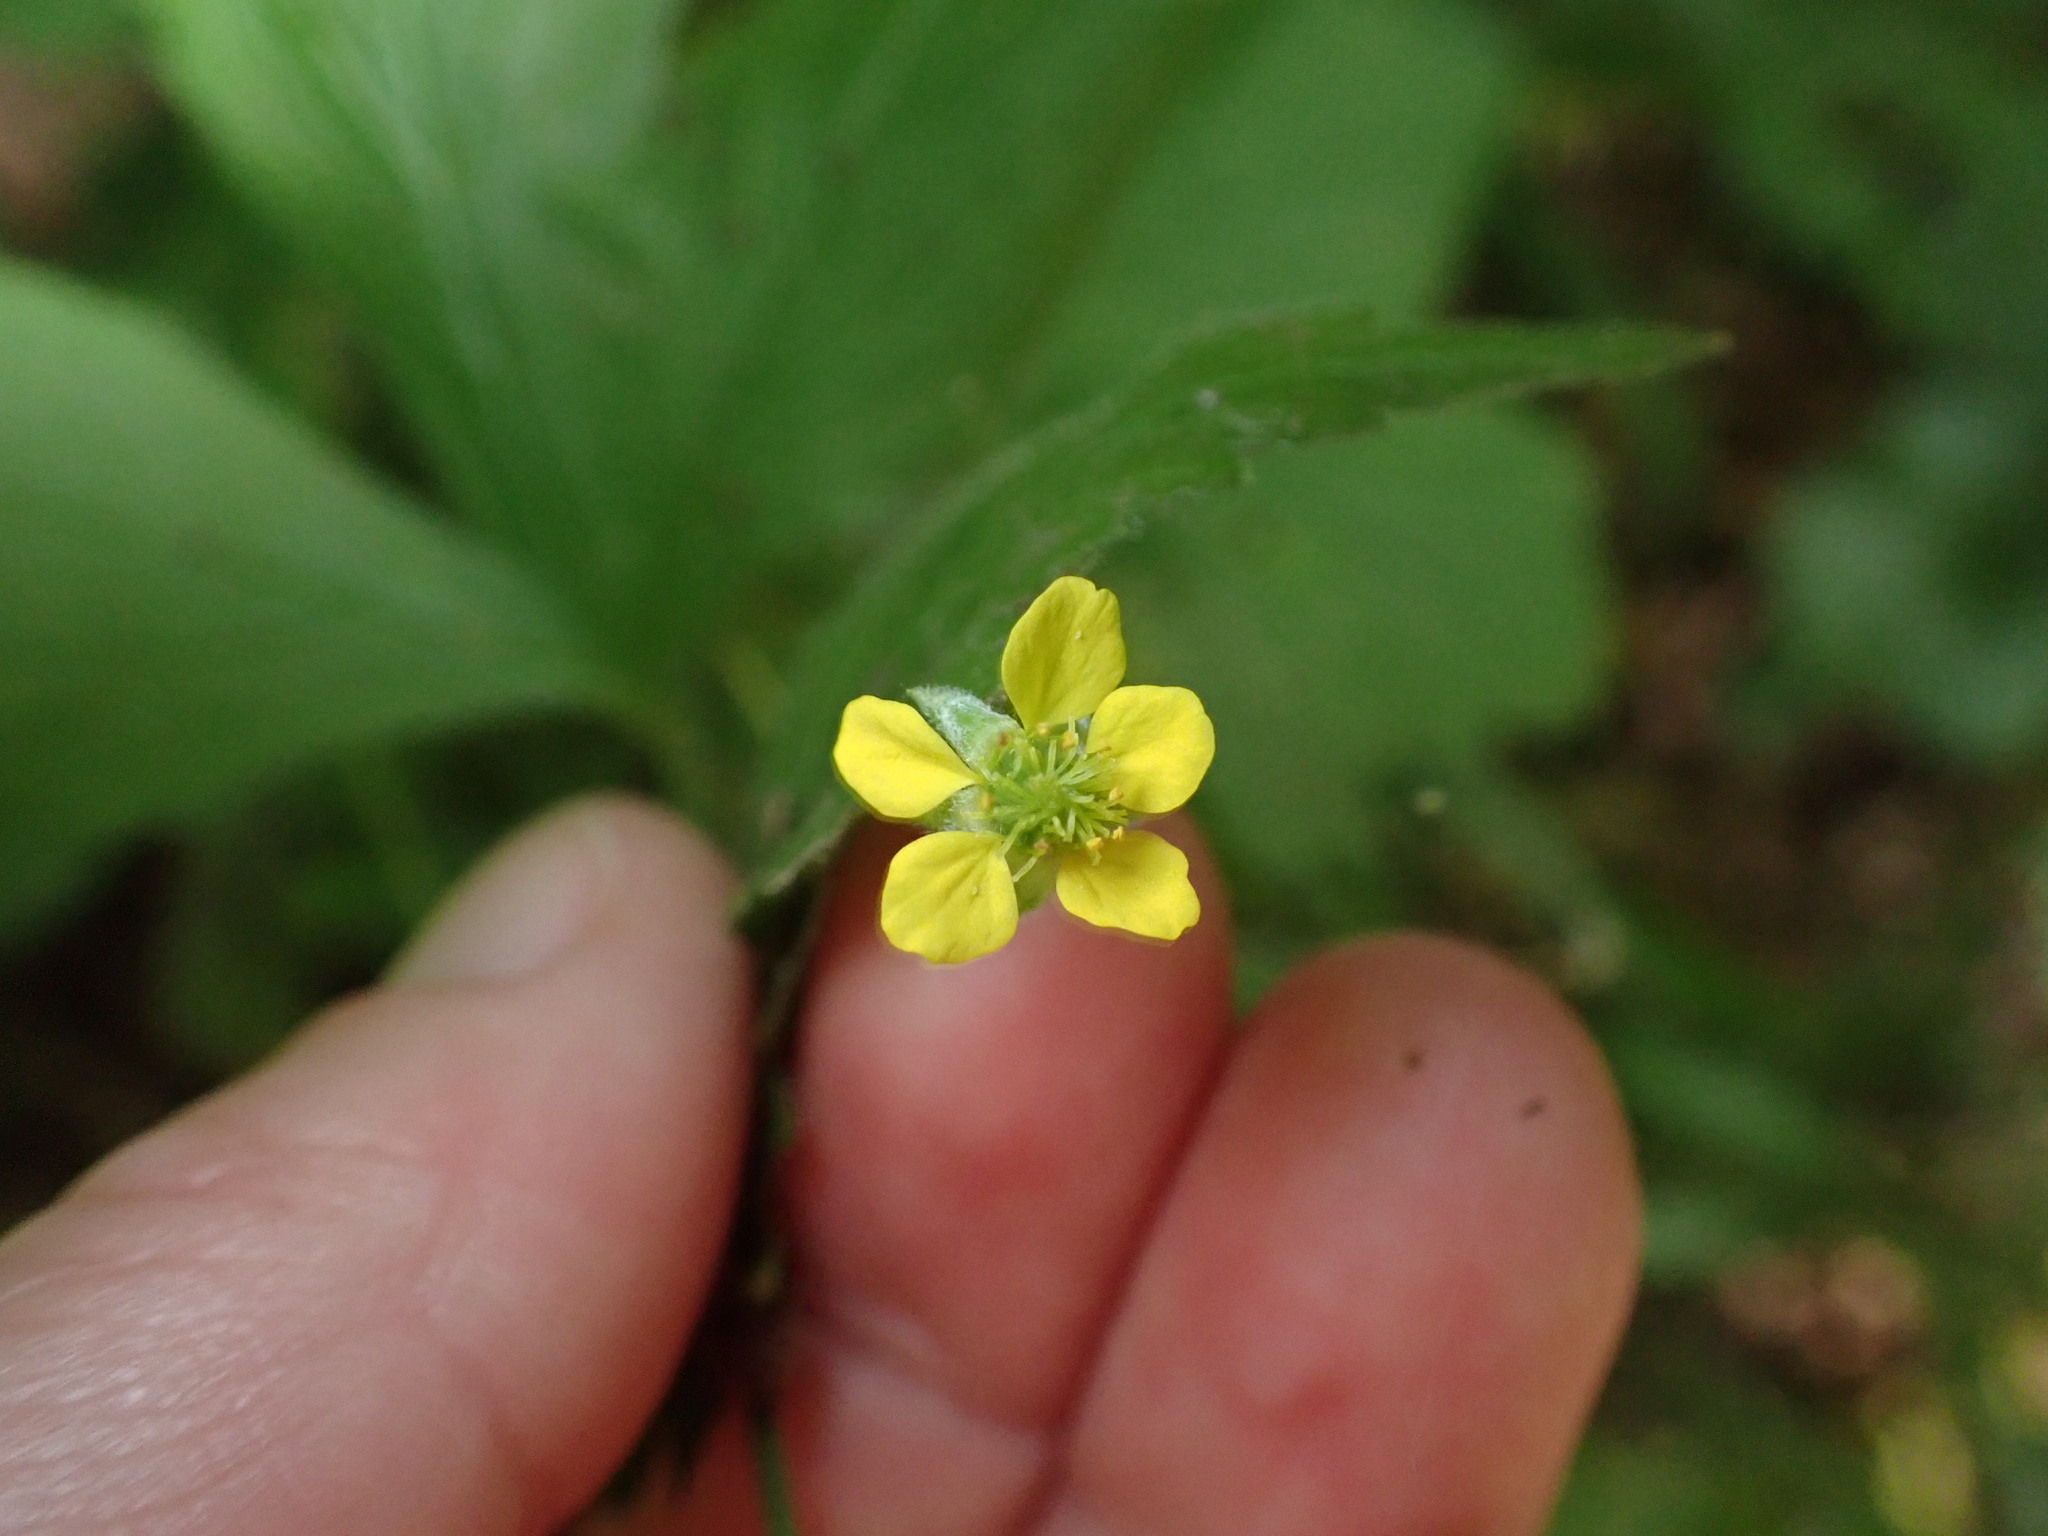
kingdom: Plantae
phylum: Tracheophyta
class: Magnoliopsida
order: Rosales
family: Rosaceae
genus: Geum
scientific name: Geum urbanum
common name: Wood avens
